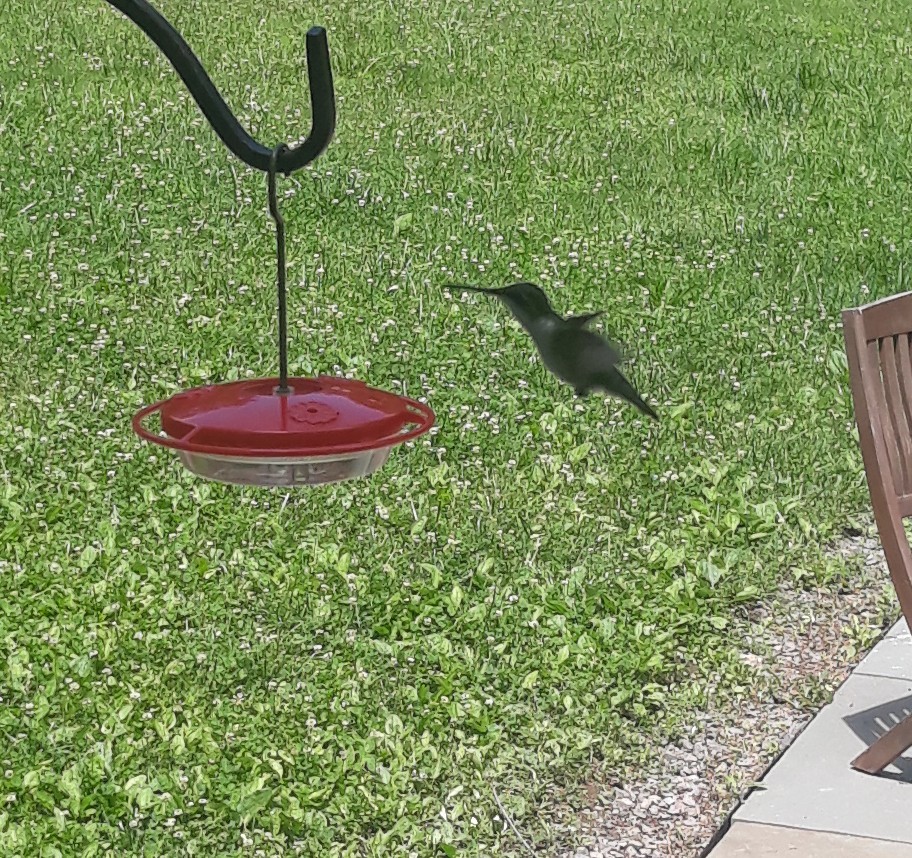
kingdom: Animalia
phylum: Chordata
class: Aves
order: Apodiformes
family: Trochilidae
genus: Archilochus
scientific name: Archilochus colubris
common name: Ruby-throated hummingbird
